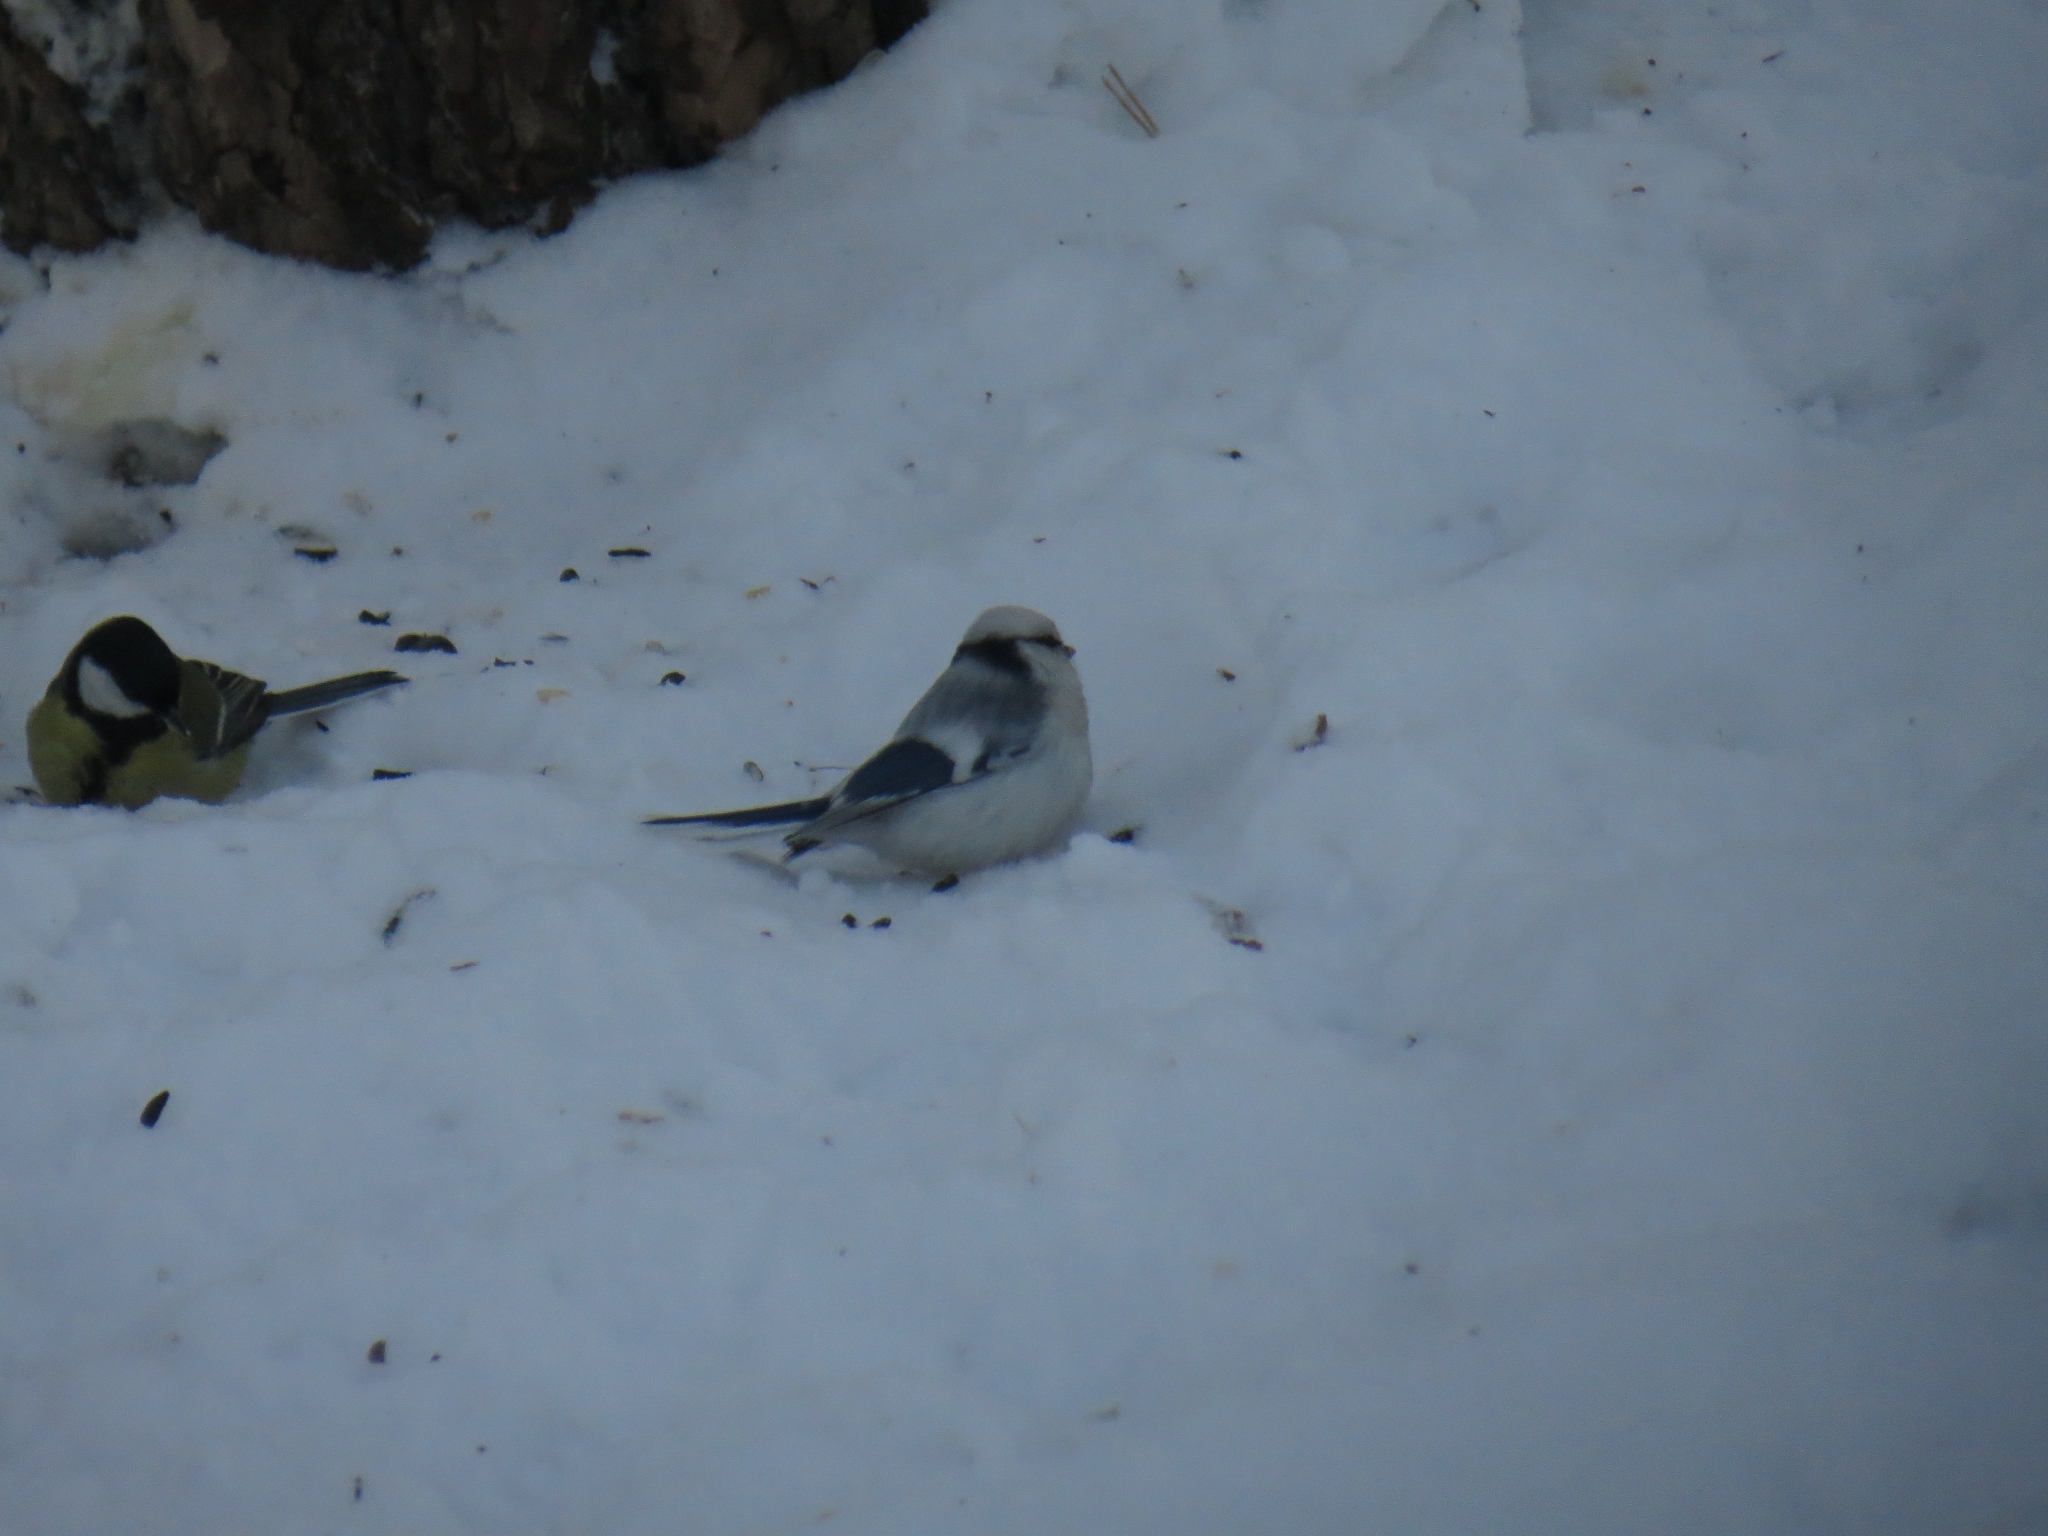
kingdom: Animalia
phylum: Chordata
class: Aves
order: Passeriformes
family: Paridae
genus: Cyanistes
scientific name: Cyanistes cyanus
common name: Azure tit
